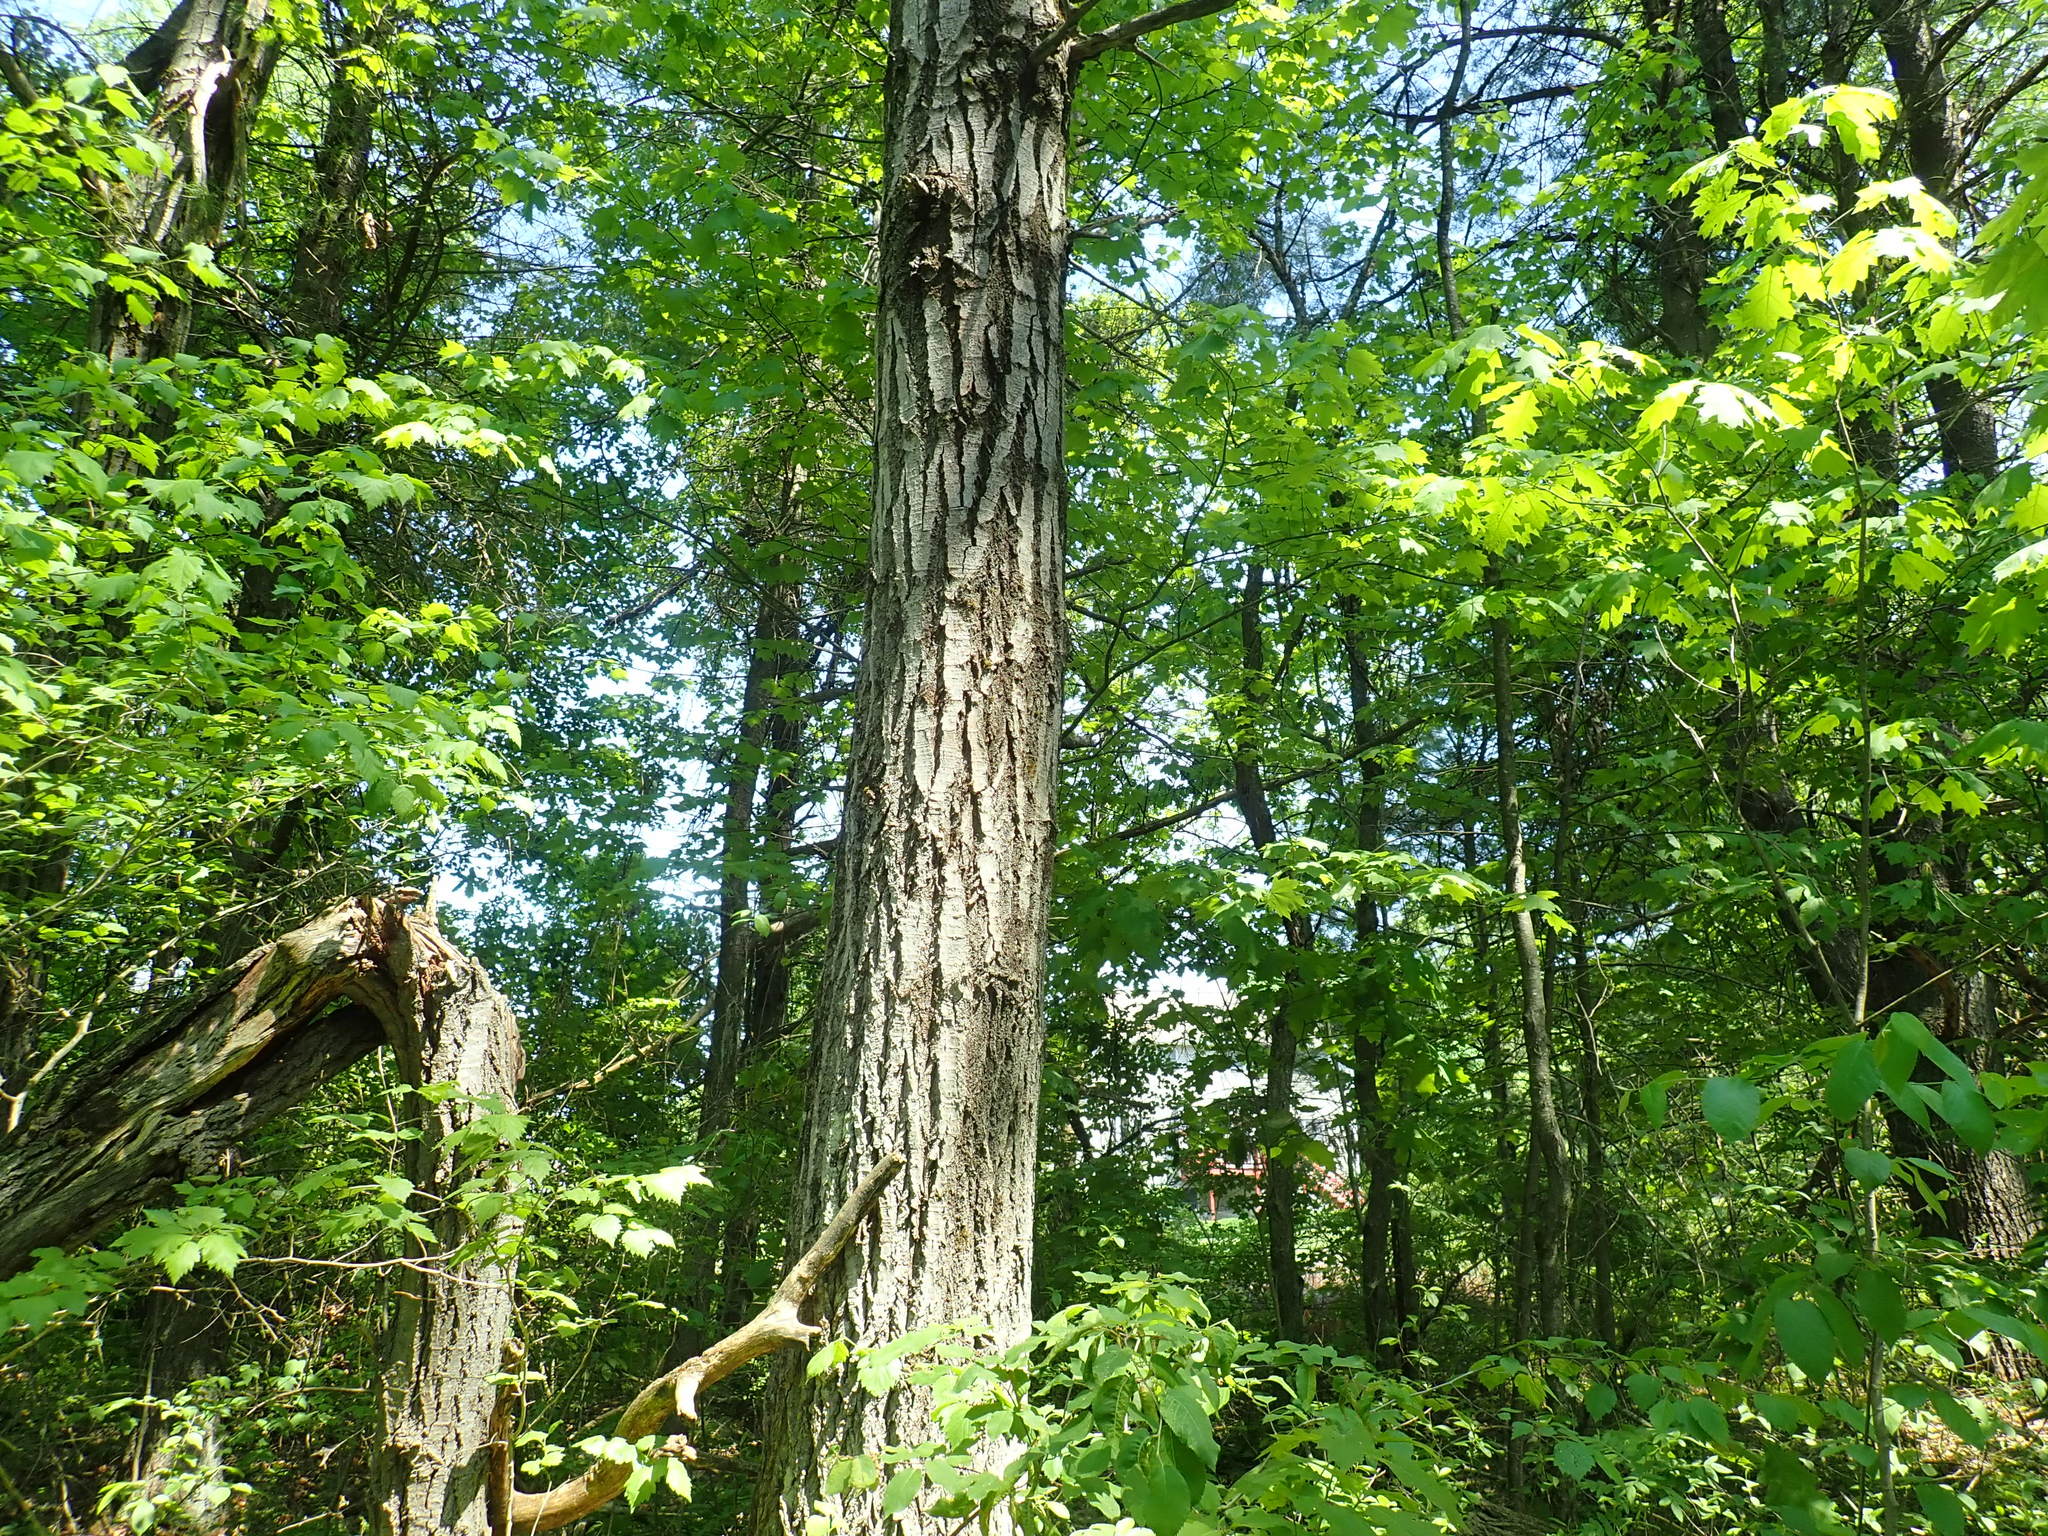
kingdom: Plantae
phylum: Tracheophyta
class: Magnoliopsida
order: Malpighiales
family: Salicaceae
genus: Populus
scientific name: Populus tremuloides
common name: Quaking aspen
